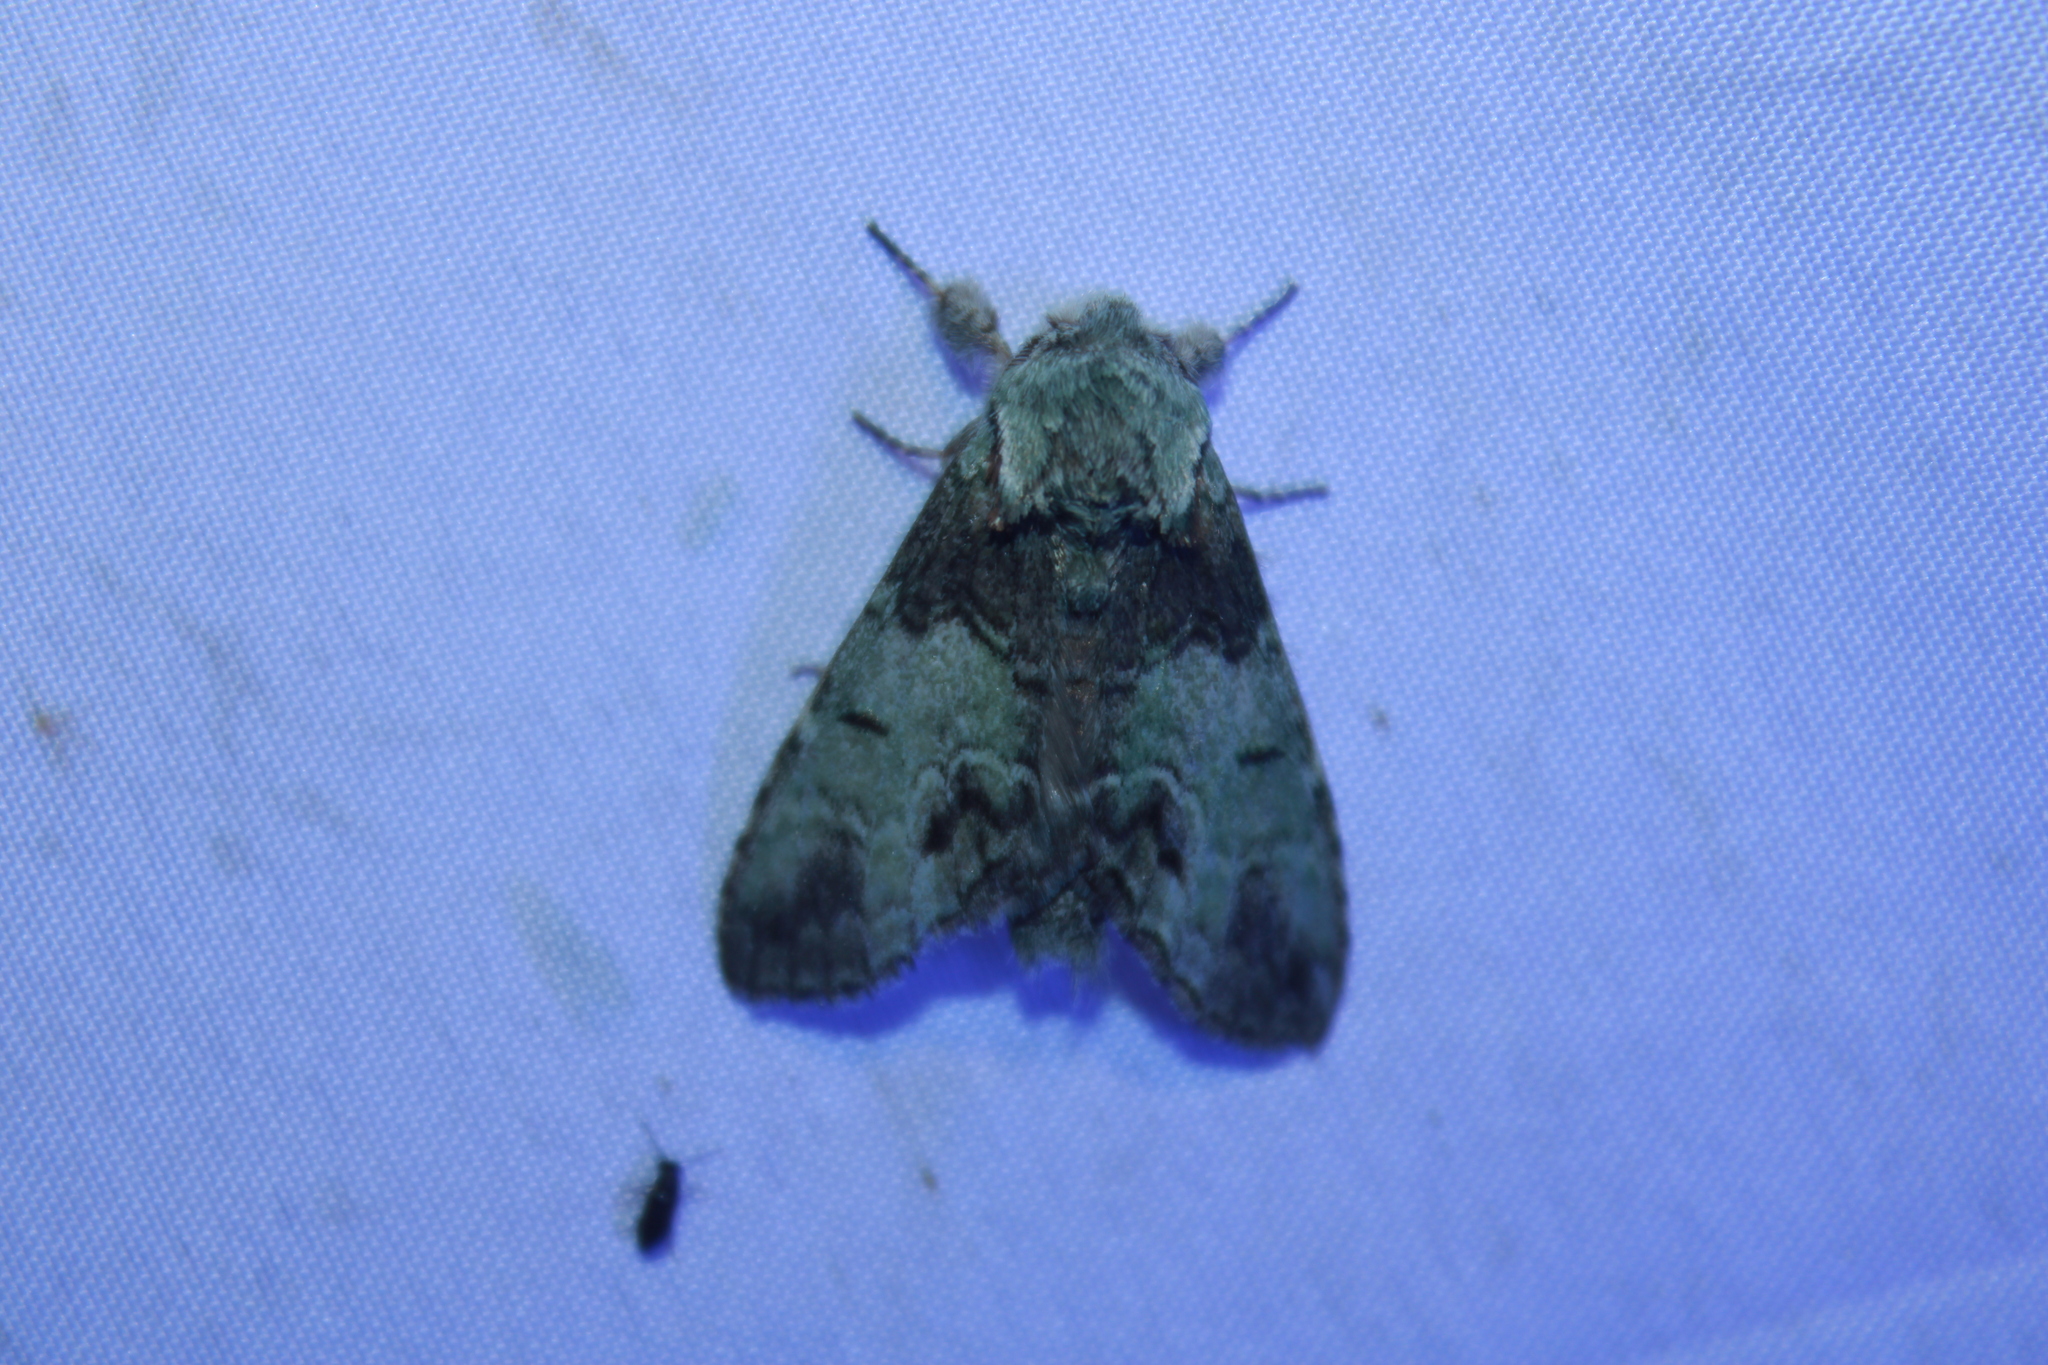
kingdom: Animalia
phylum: Arthropoda
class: Insecta
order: Lepidoptera
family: Notodontidae
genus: Macrurocampa
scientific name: Macrurocampa marthesia
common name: Mottled prominent
